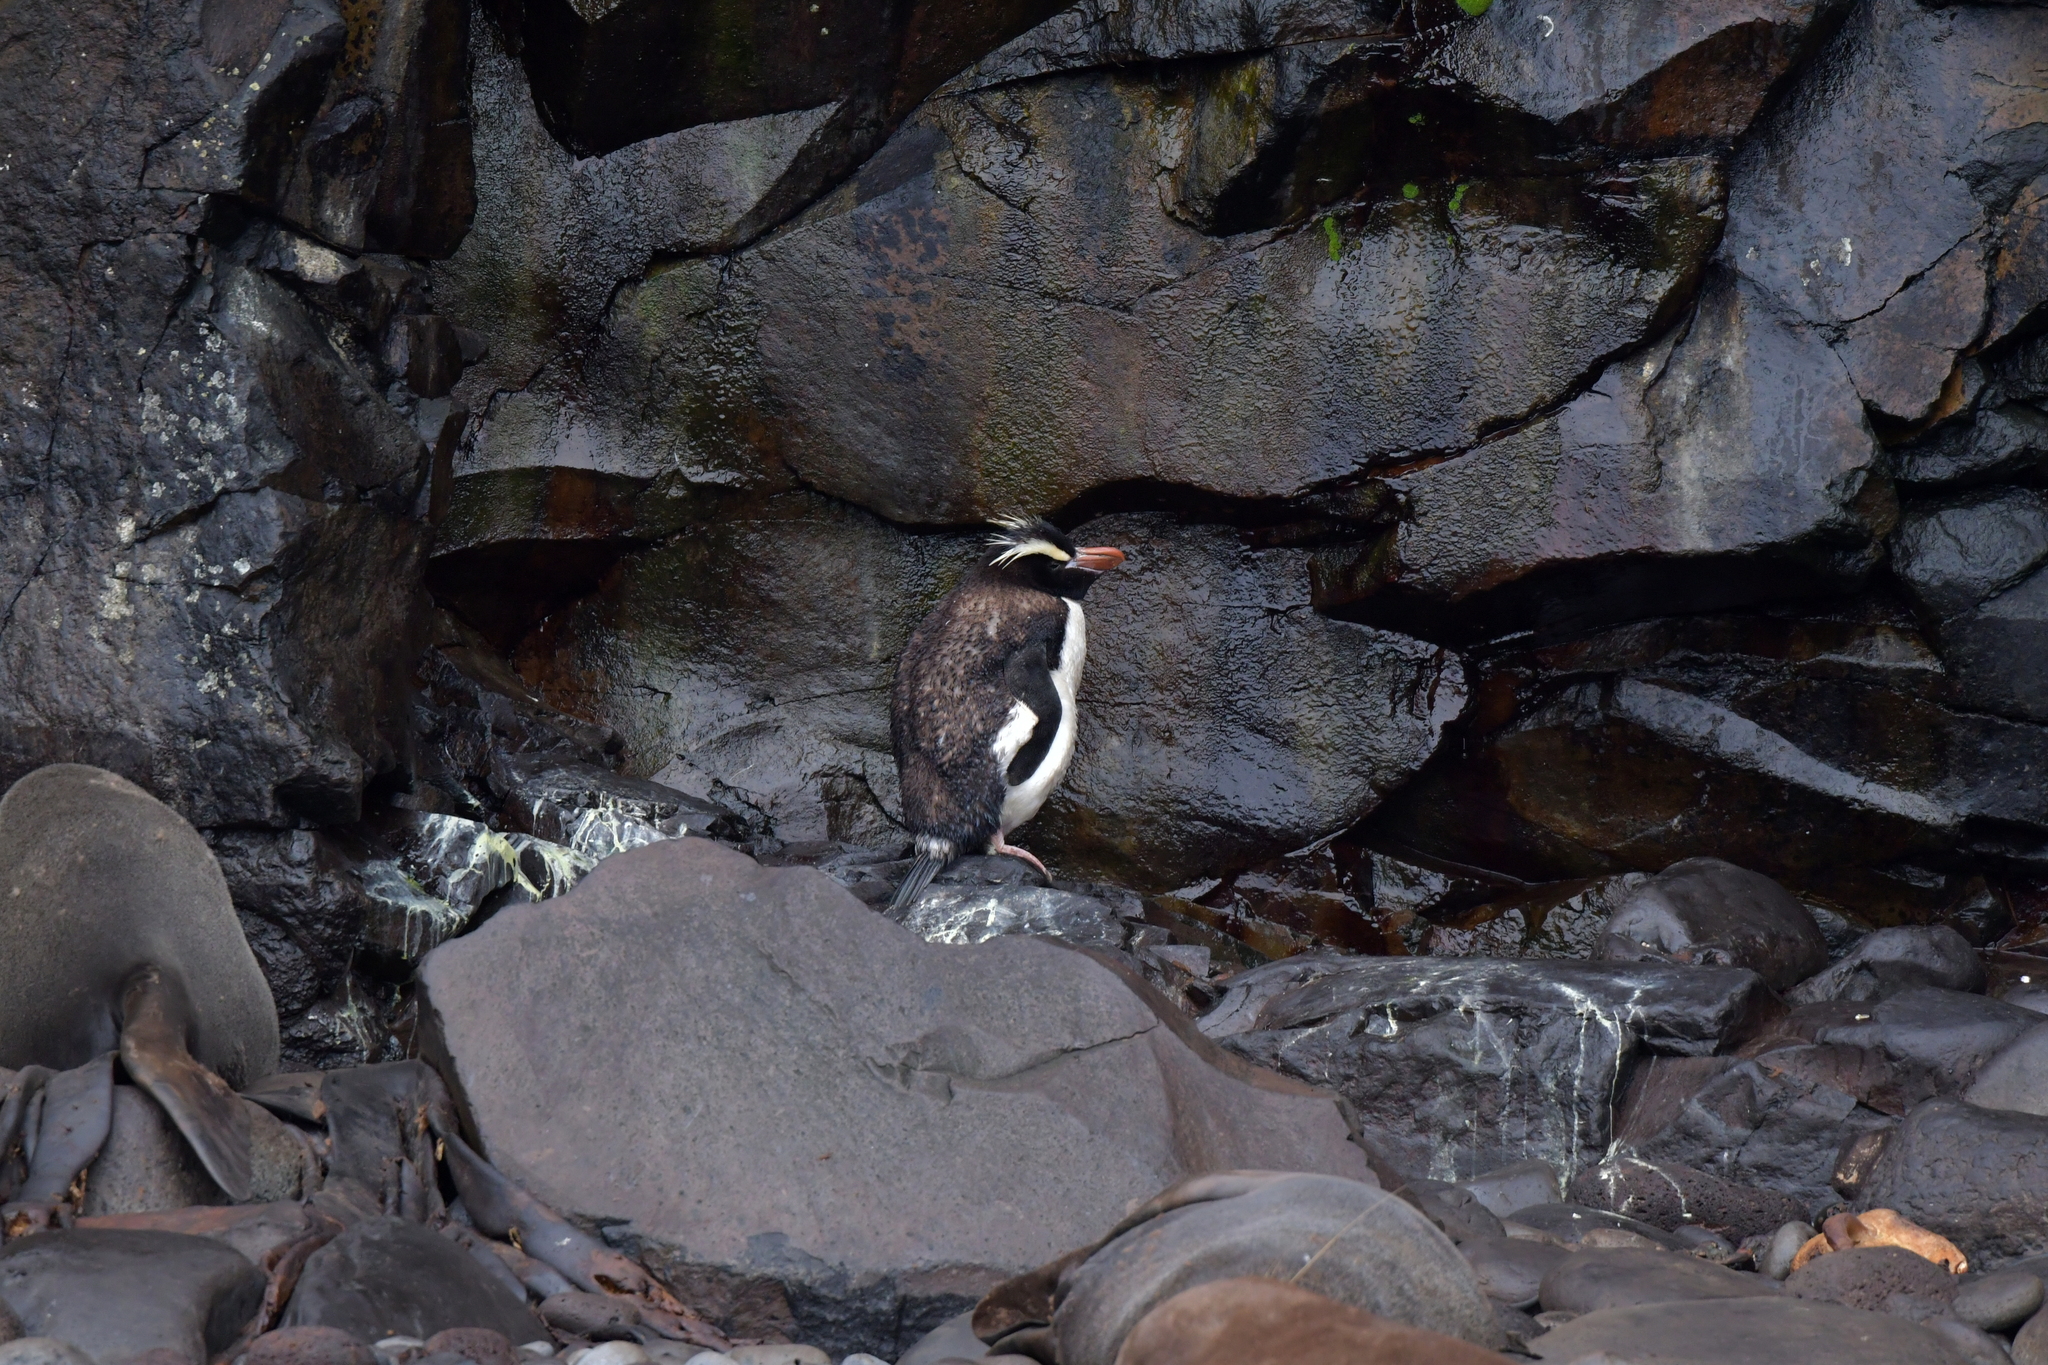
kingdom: Animalia
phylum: Chordata
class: Aves
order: Sphenisciformes
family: Spheniscidae
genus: Eudyptes
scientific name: Eudyptes sclateri
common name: Erect-crested penguin
